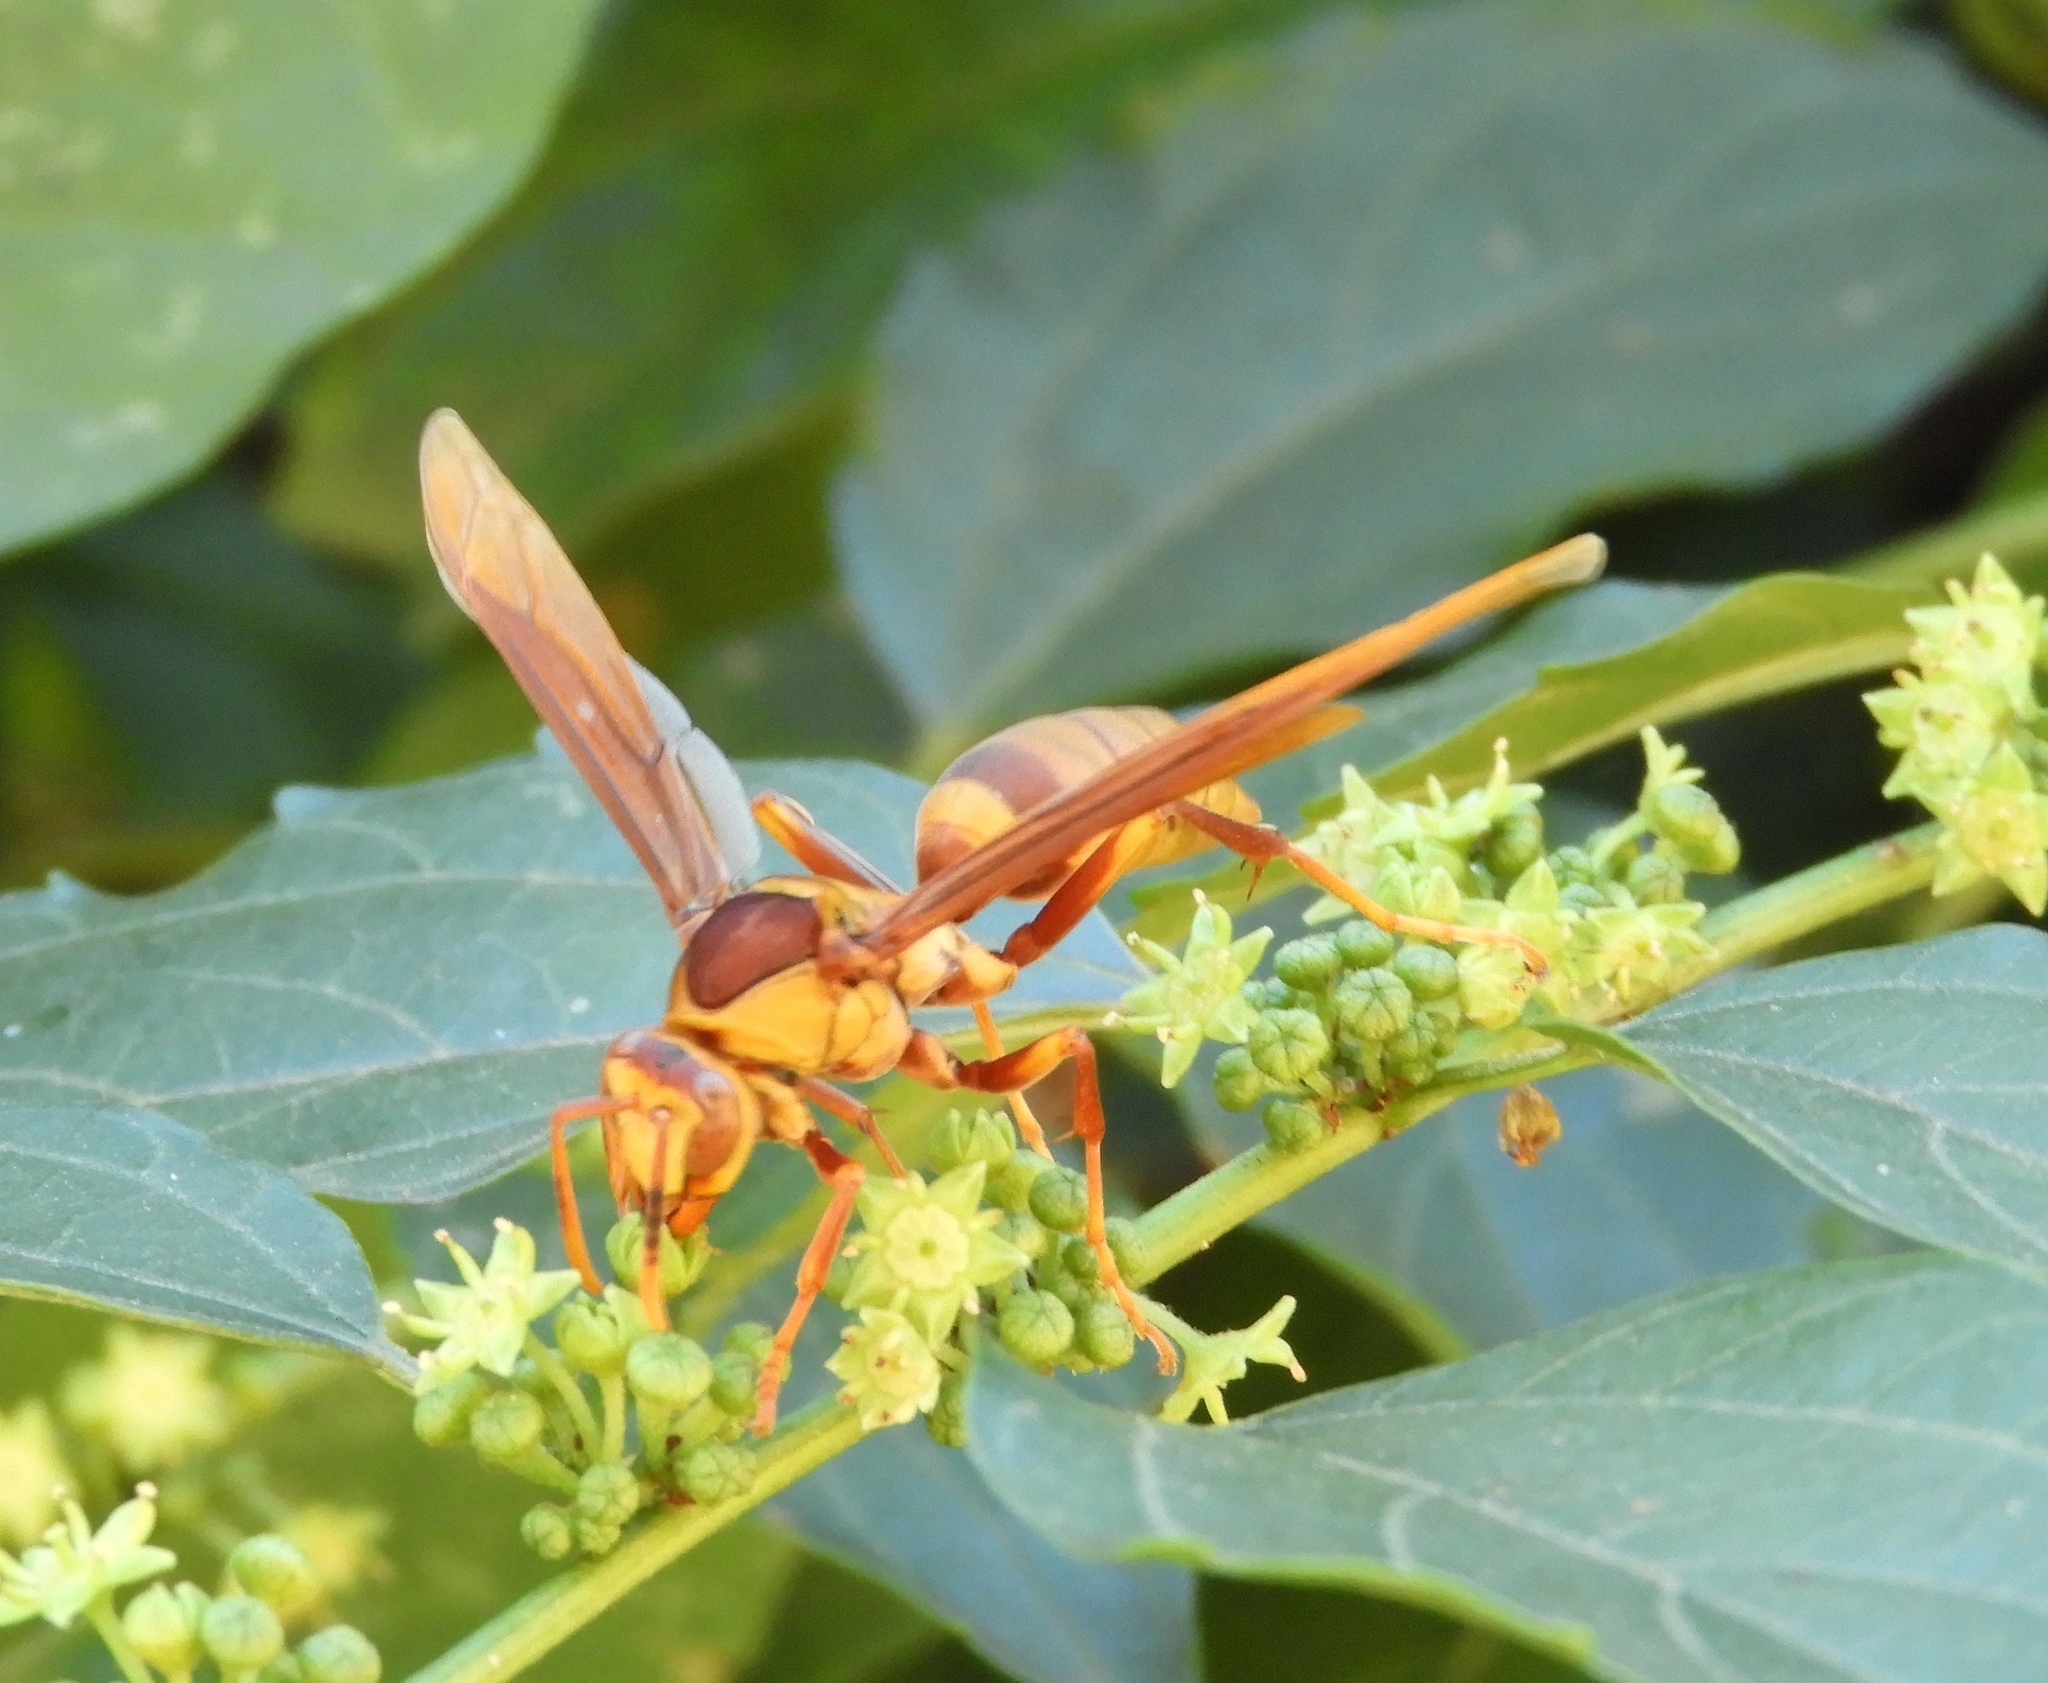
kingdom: Animalia
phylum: Arthropoda
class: Insecta
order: Hymenoptera
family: Eumenidae
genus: Polistes
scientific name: Polistes major
